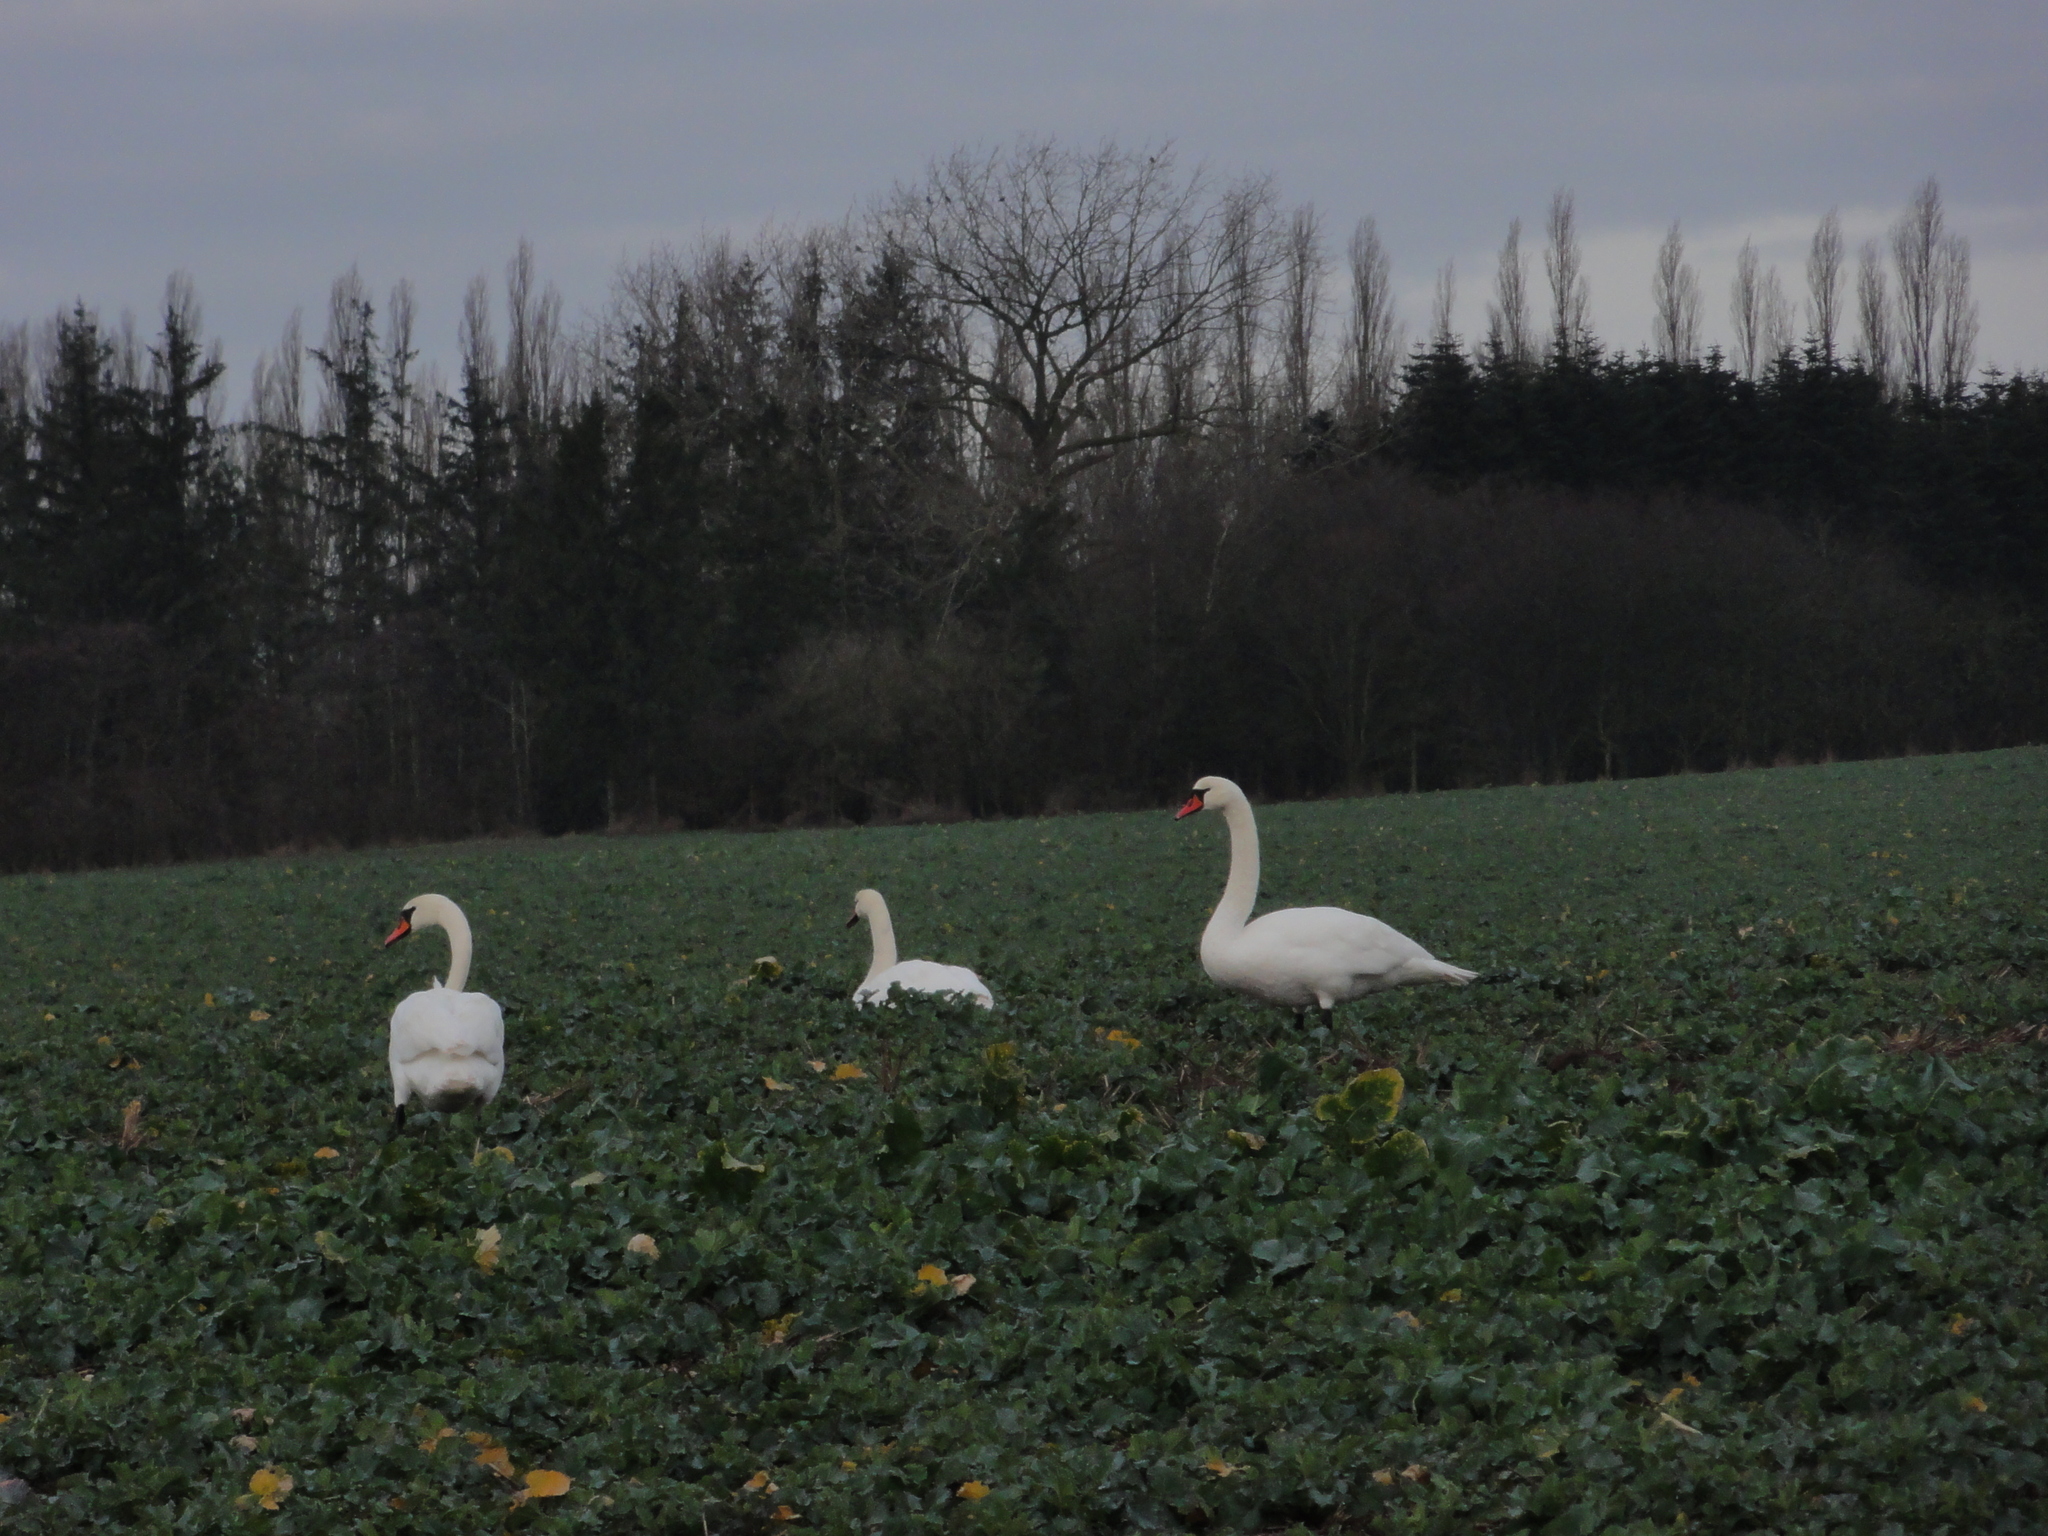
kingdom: Animalia
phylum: Chordata
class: Aves
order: Anseriformes
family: Anatidae
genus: Cygnus
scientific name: Cygnus olor
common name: Mute swan
